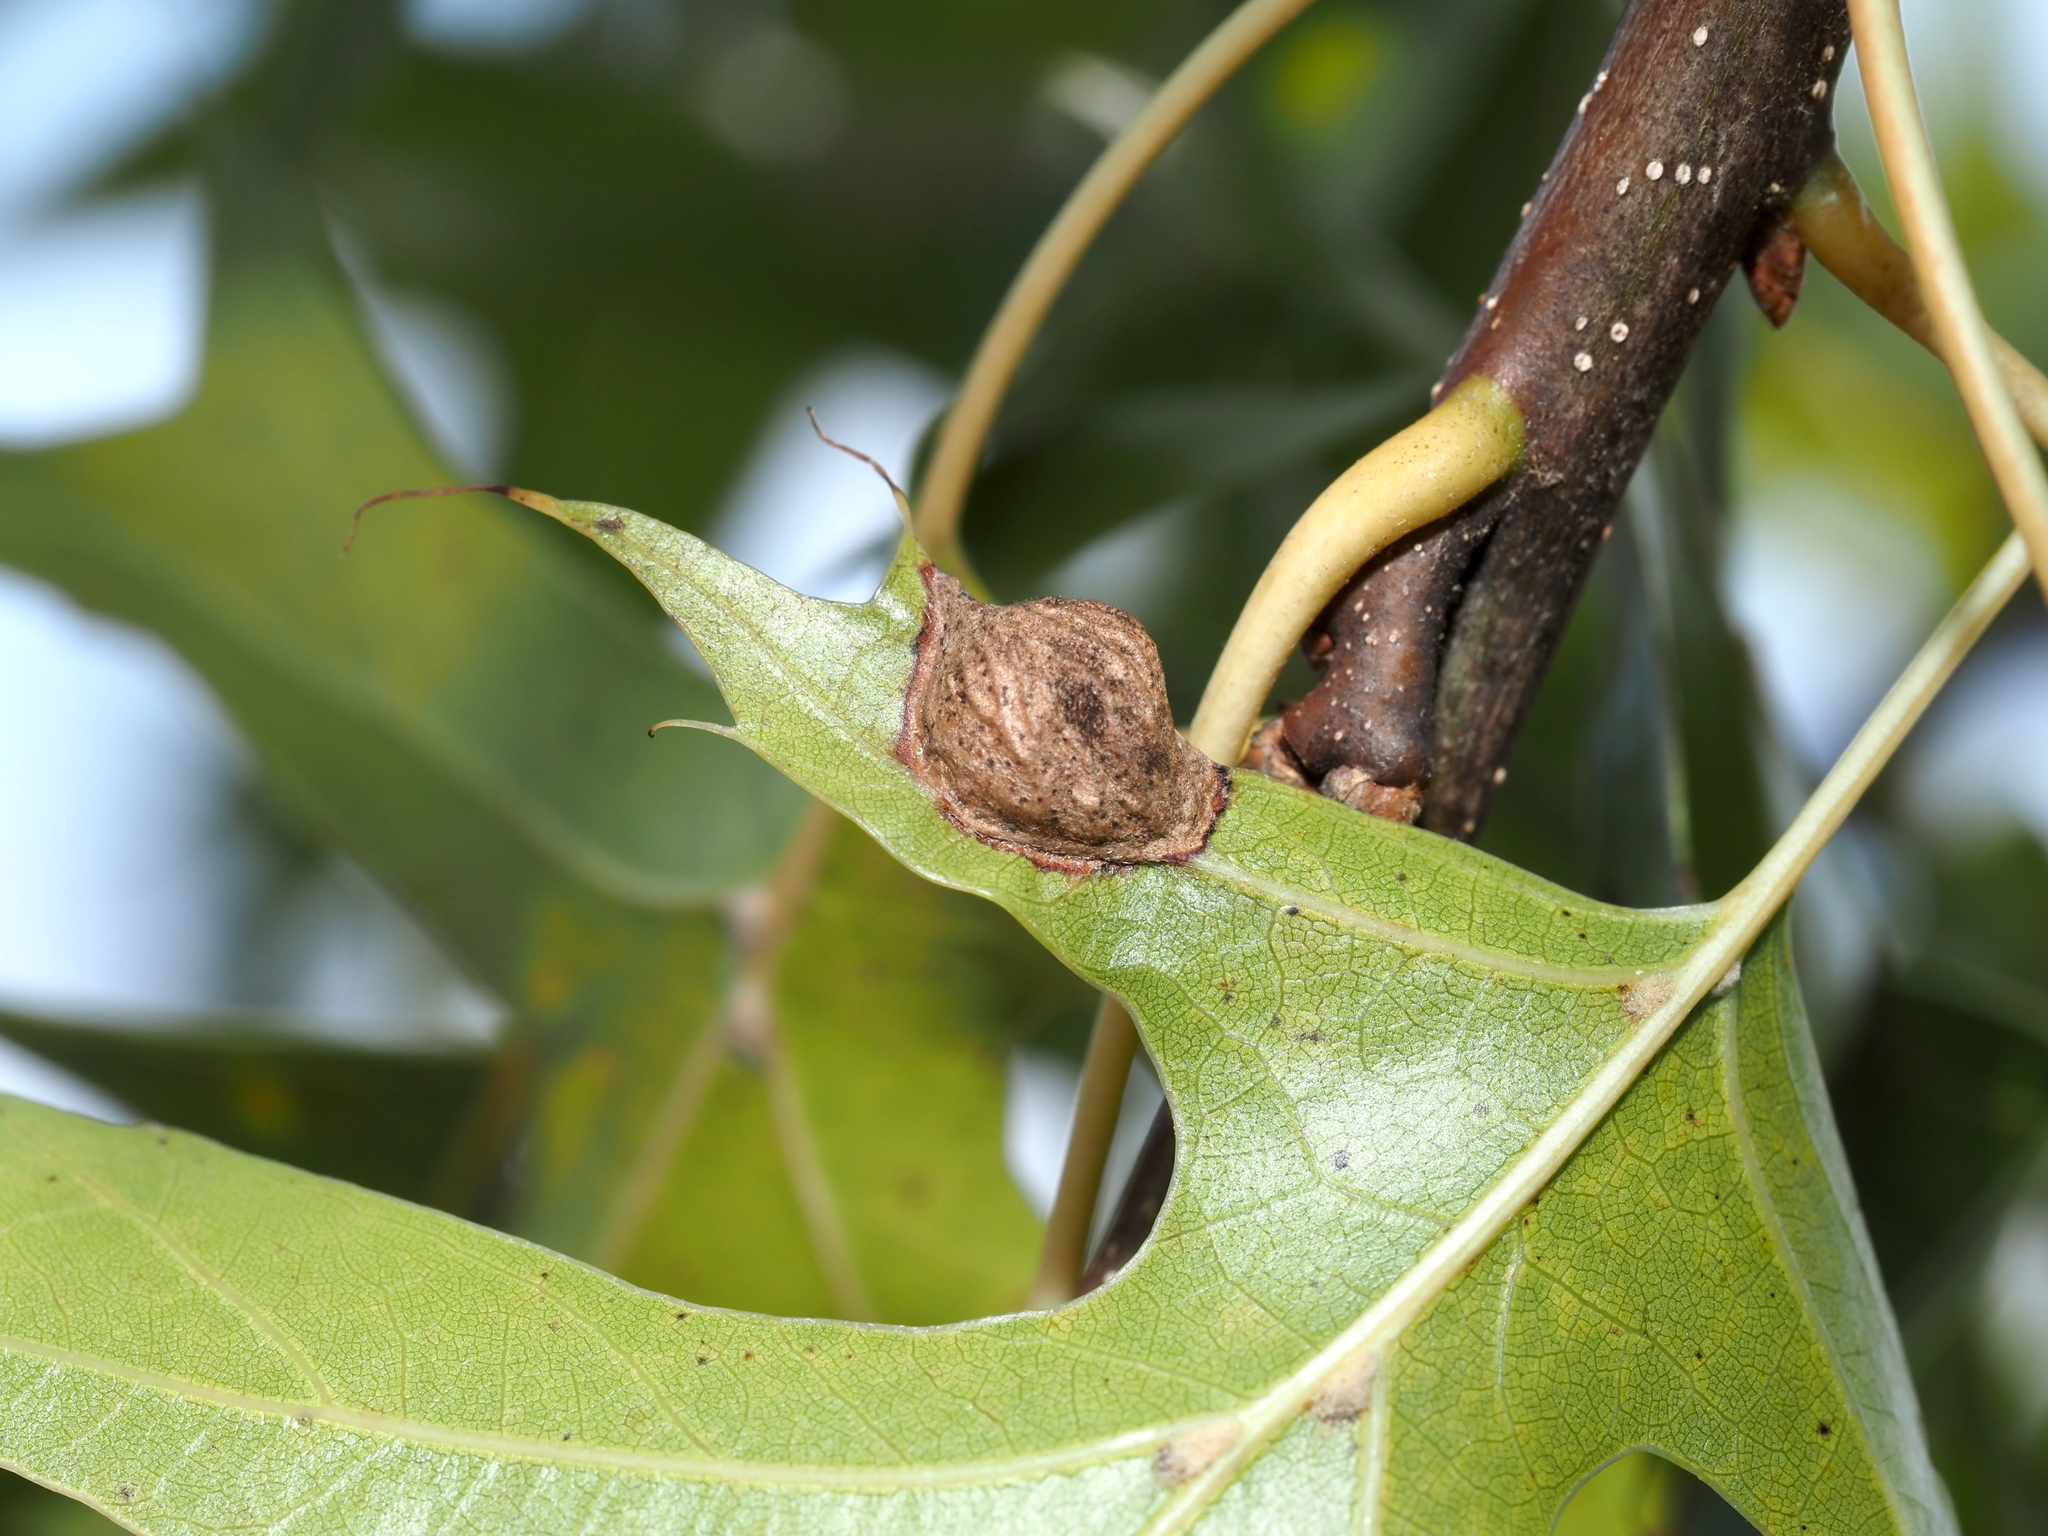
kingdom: Animalia
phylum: Arthropoda
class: Insecta
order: Hymenoptera
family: Cynipidae
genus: Dryocosmus
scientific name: Dryocosmus
